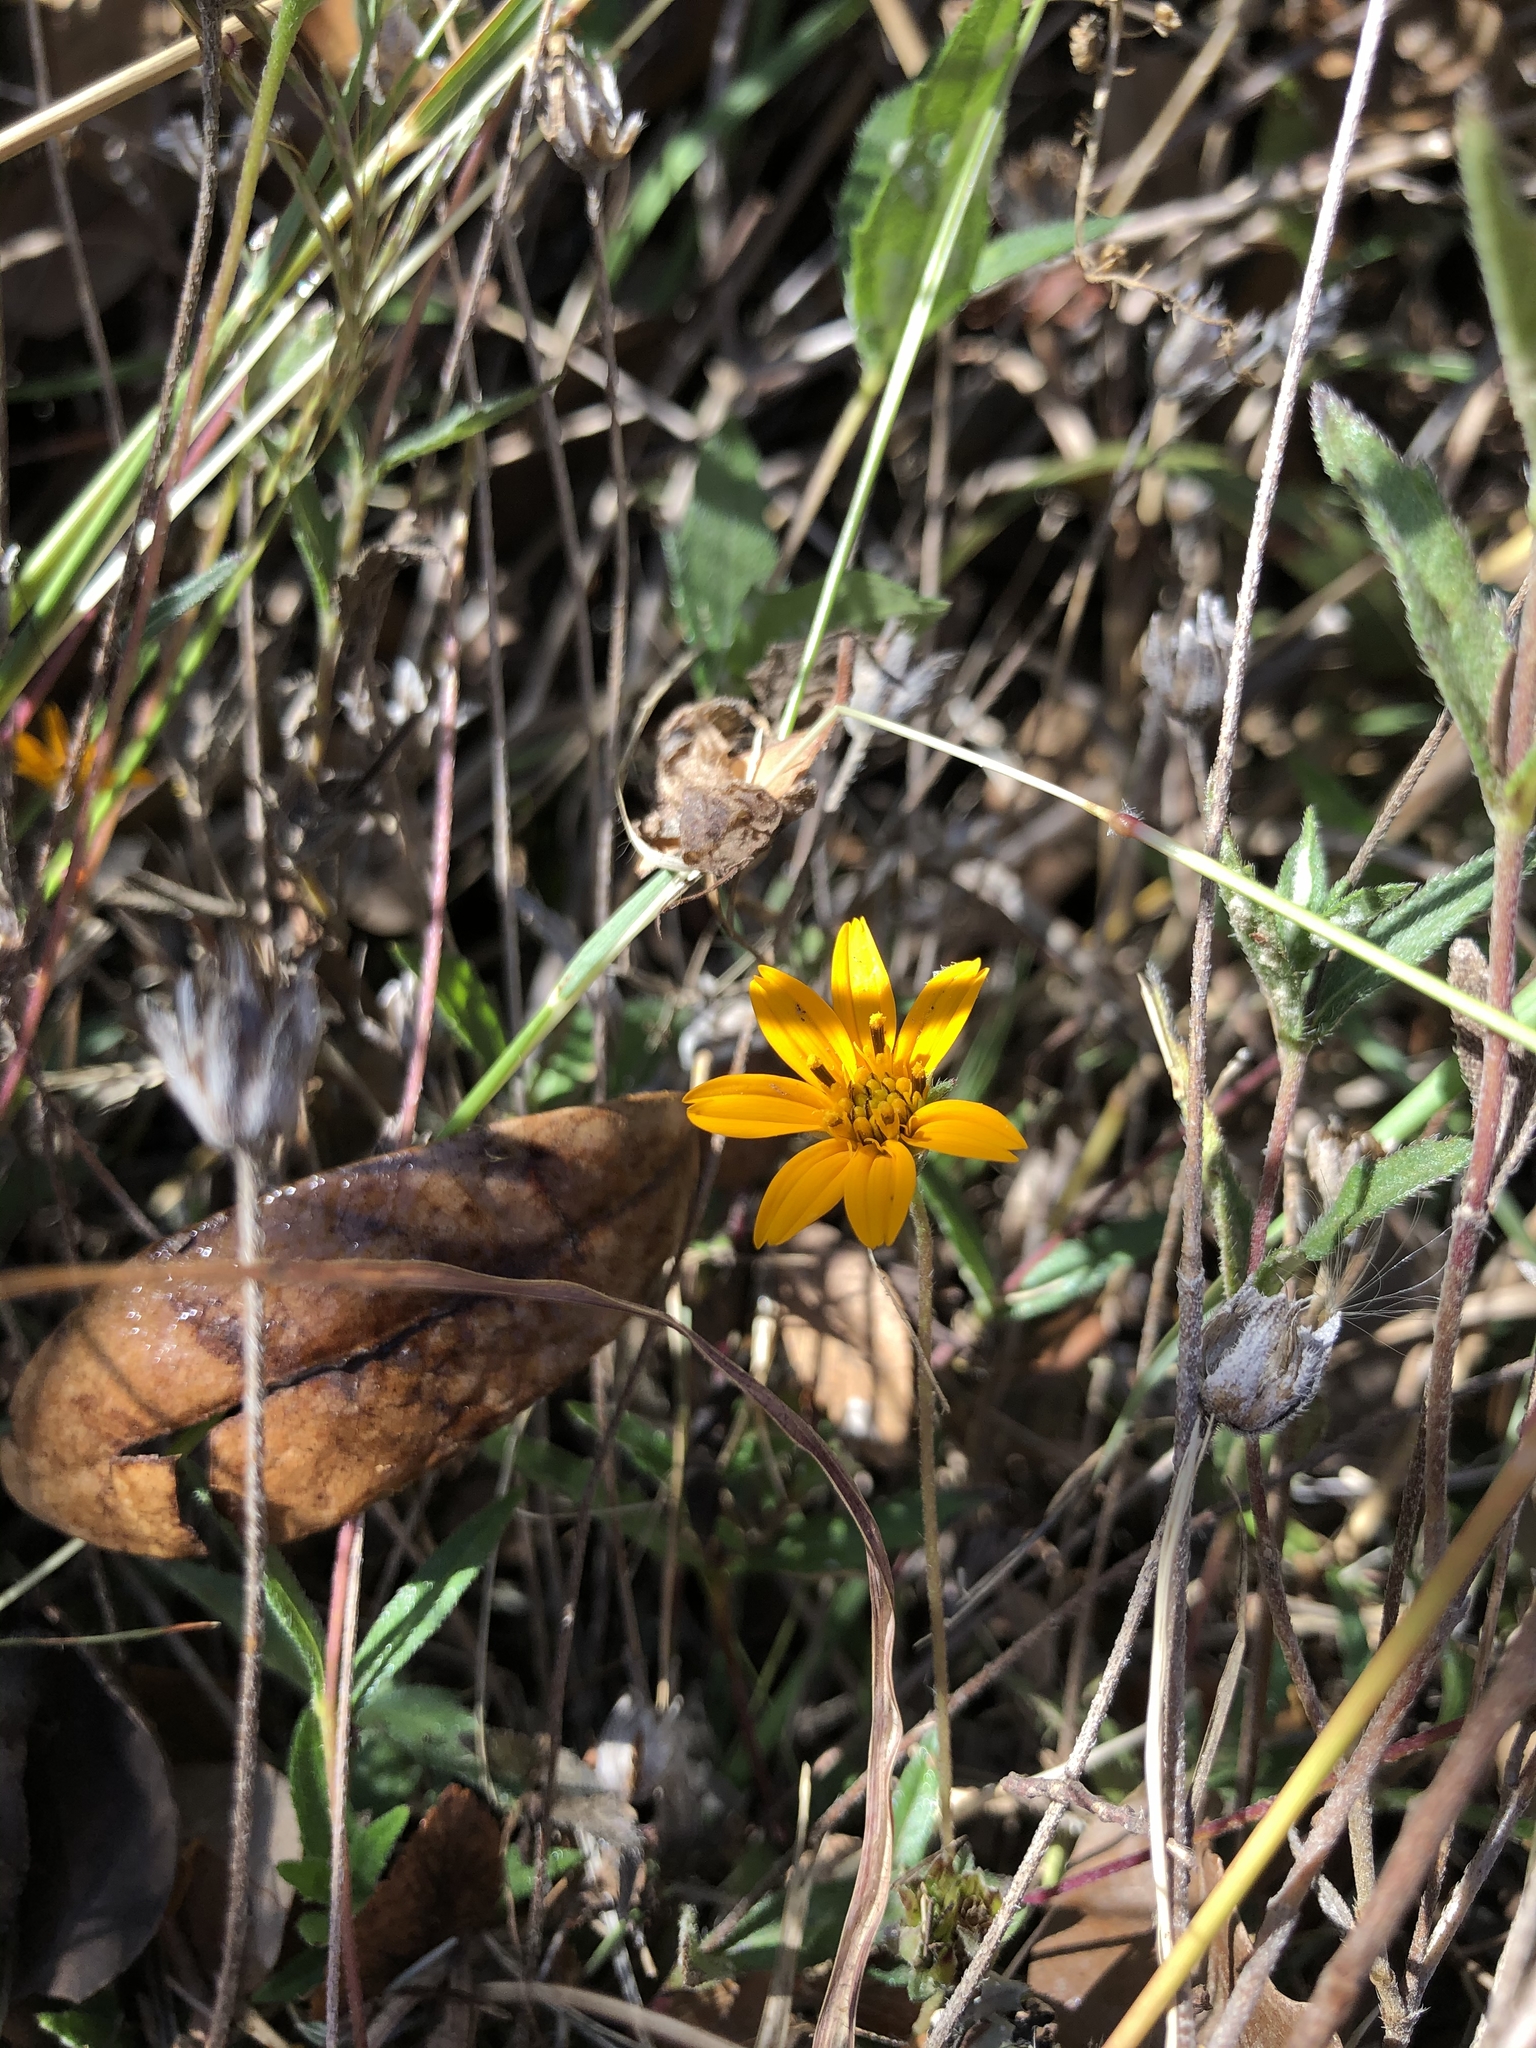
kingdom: Plantae
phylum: Tracheophyta
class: Magnoliopsida
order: Asterales
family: Asteraceae
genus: Wedelia
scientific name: Wedelia acapulcensis
